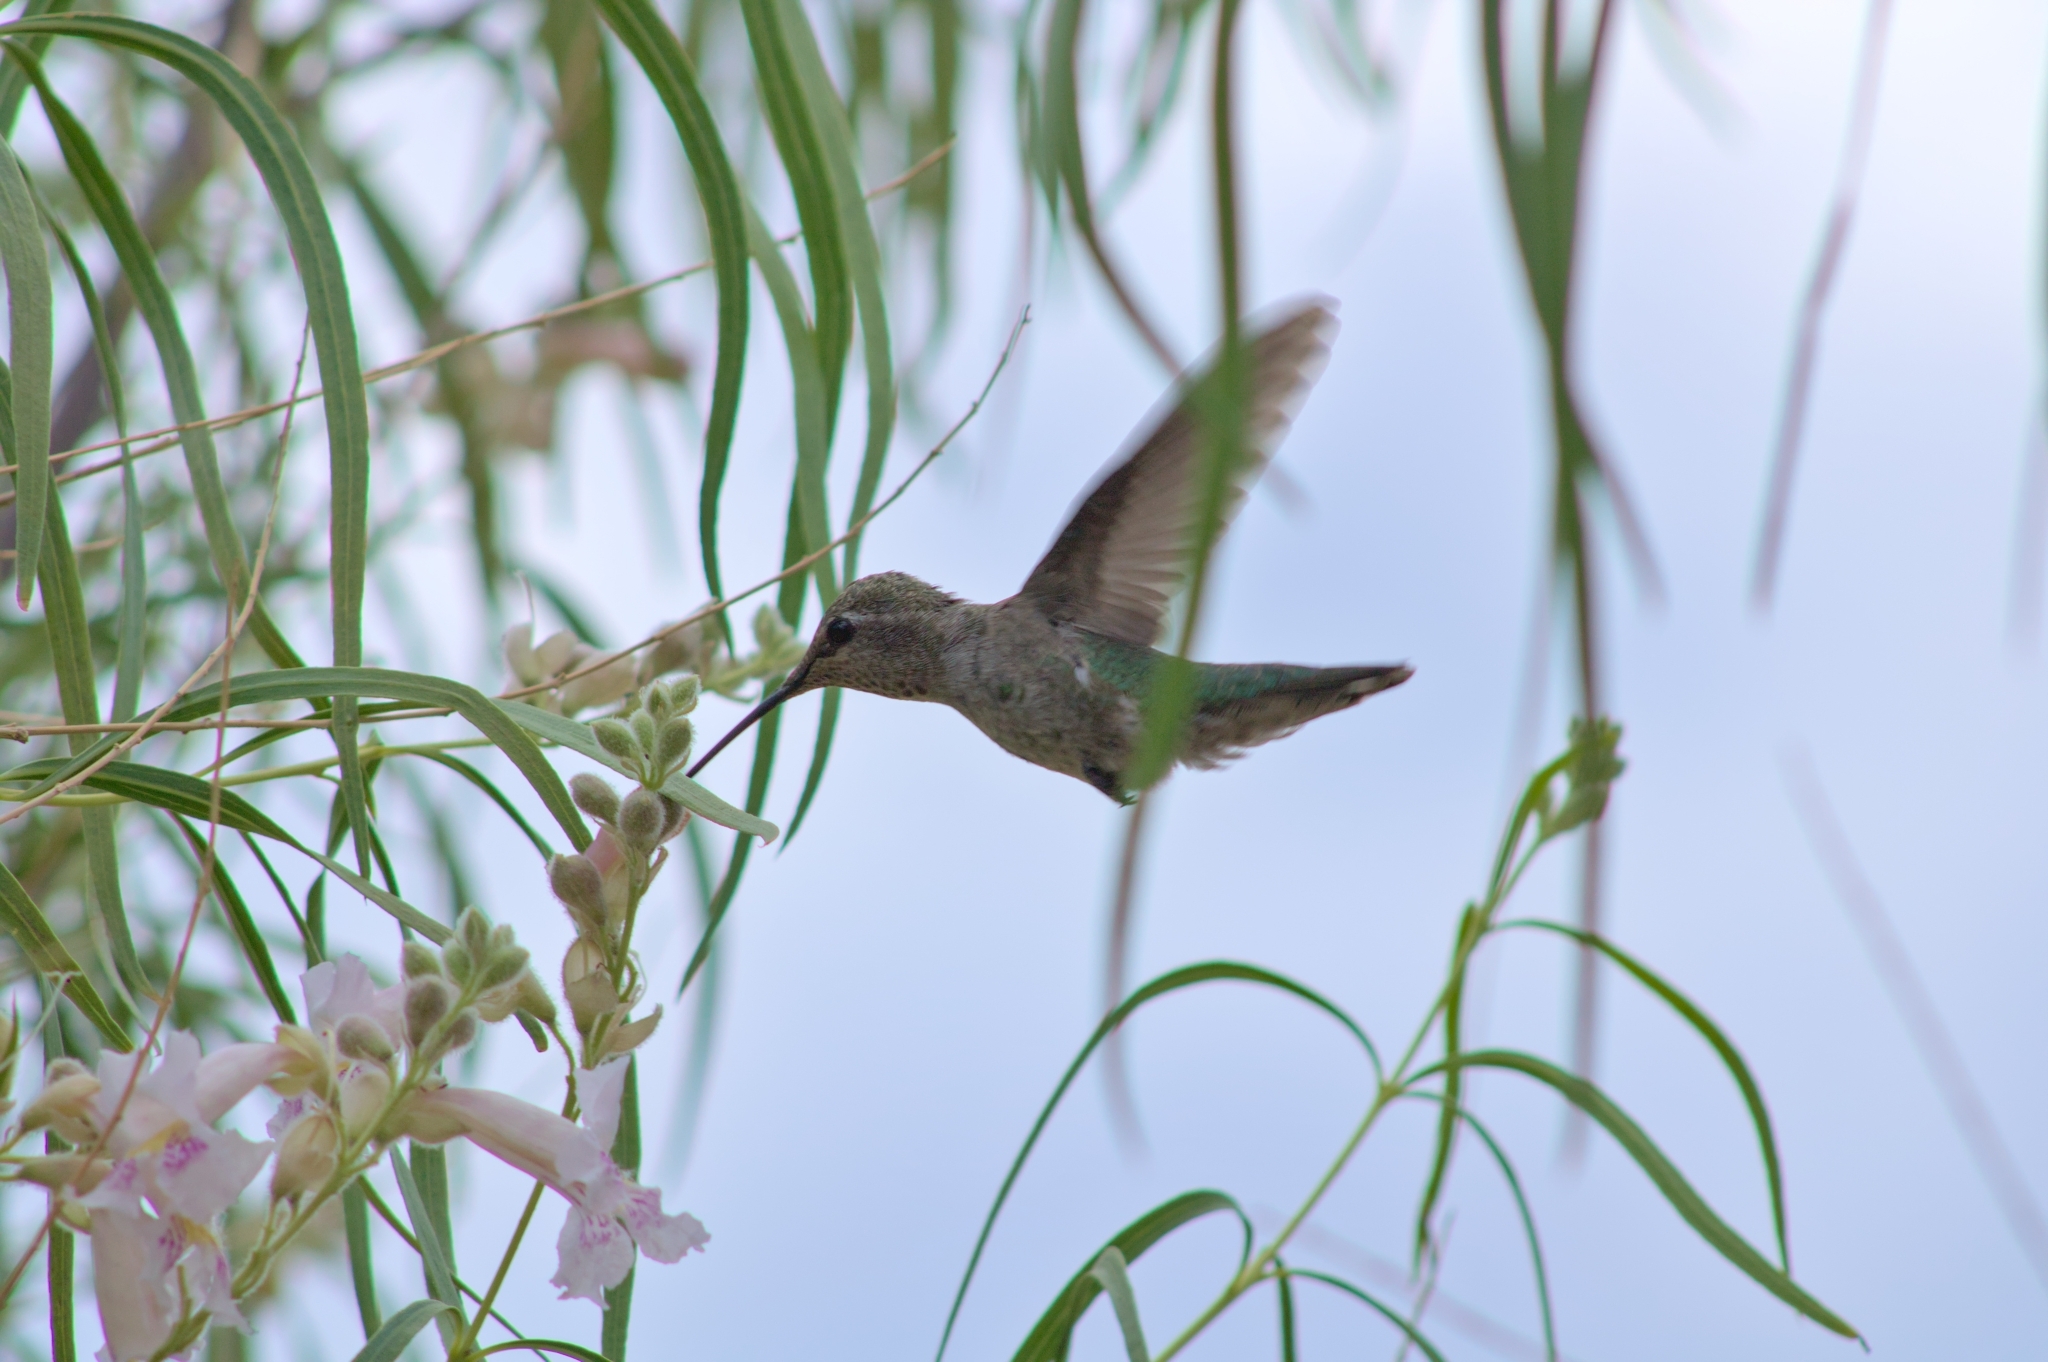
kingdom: Animalia
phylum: Chordata
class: Aves
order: Apodiformes
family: Trochilidae
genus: Calypte
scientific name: Calypte anna
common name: Anna's hummingbird
